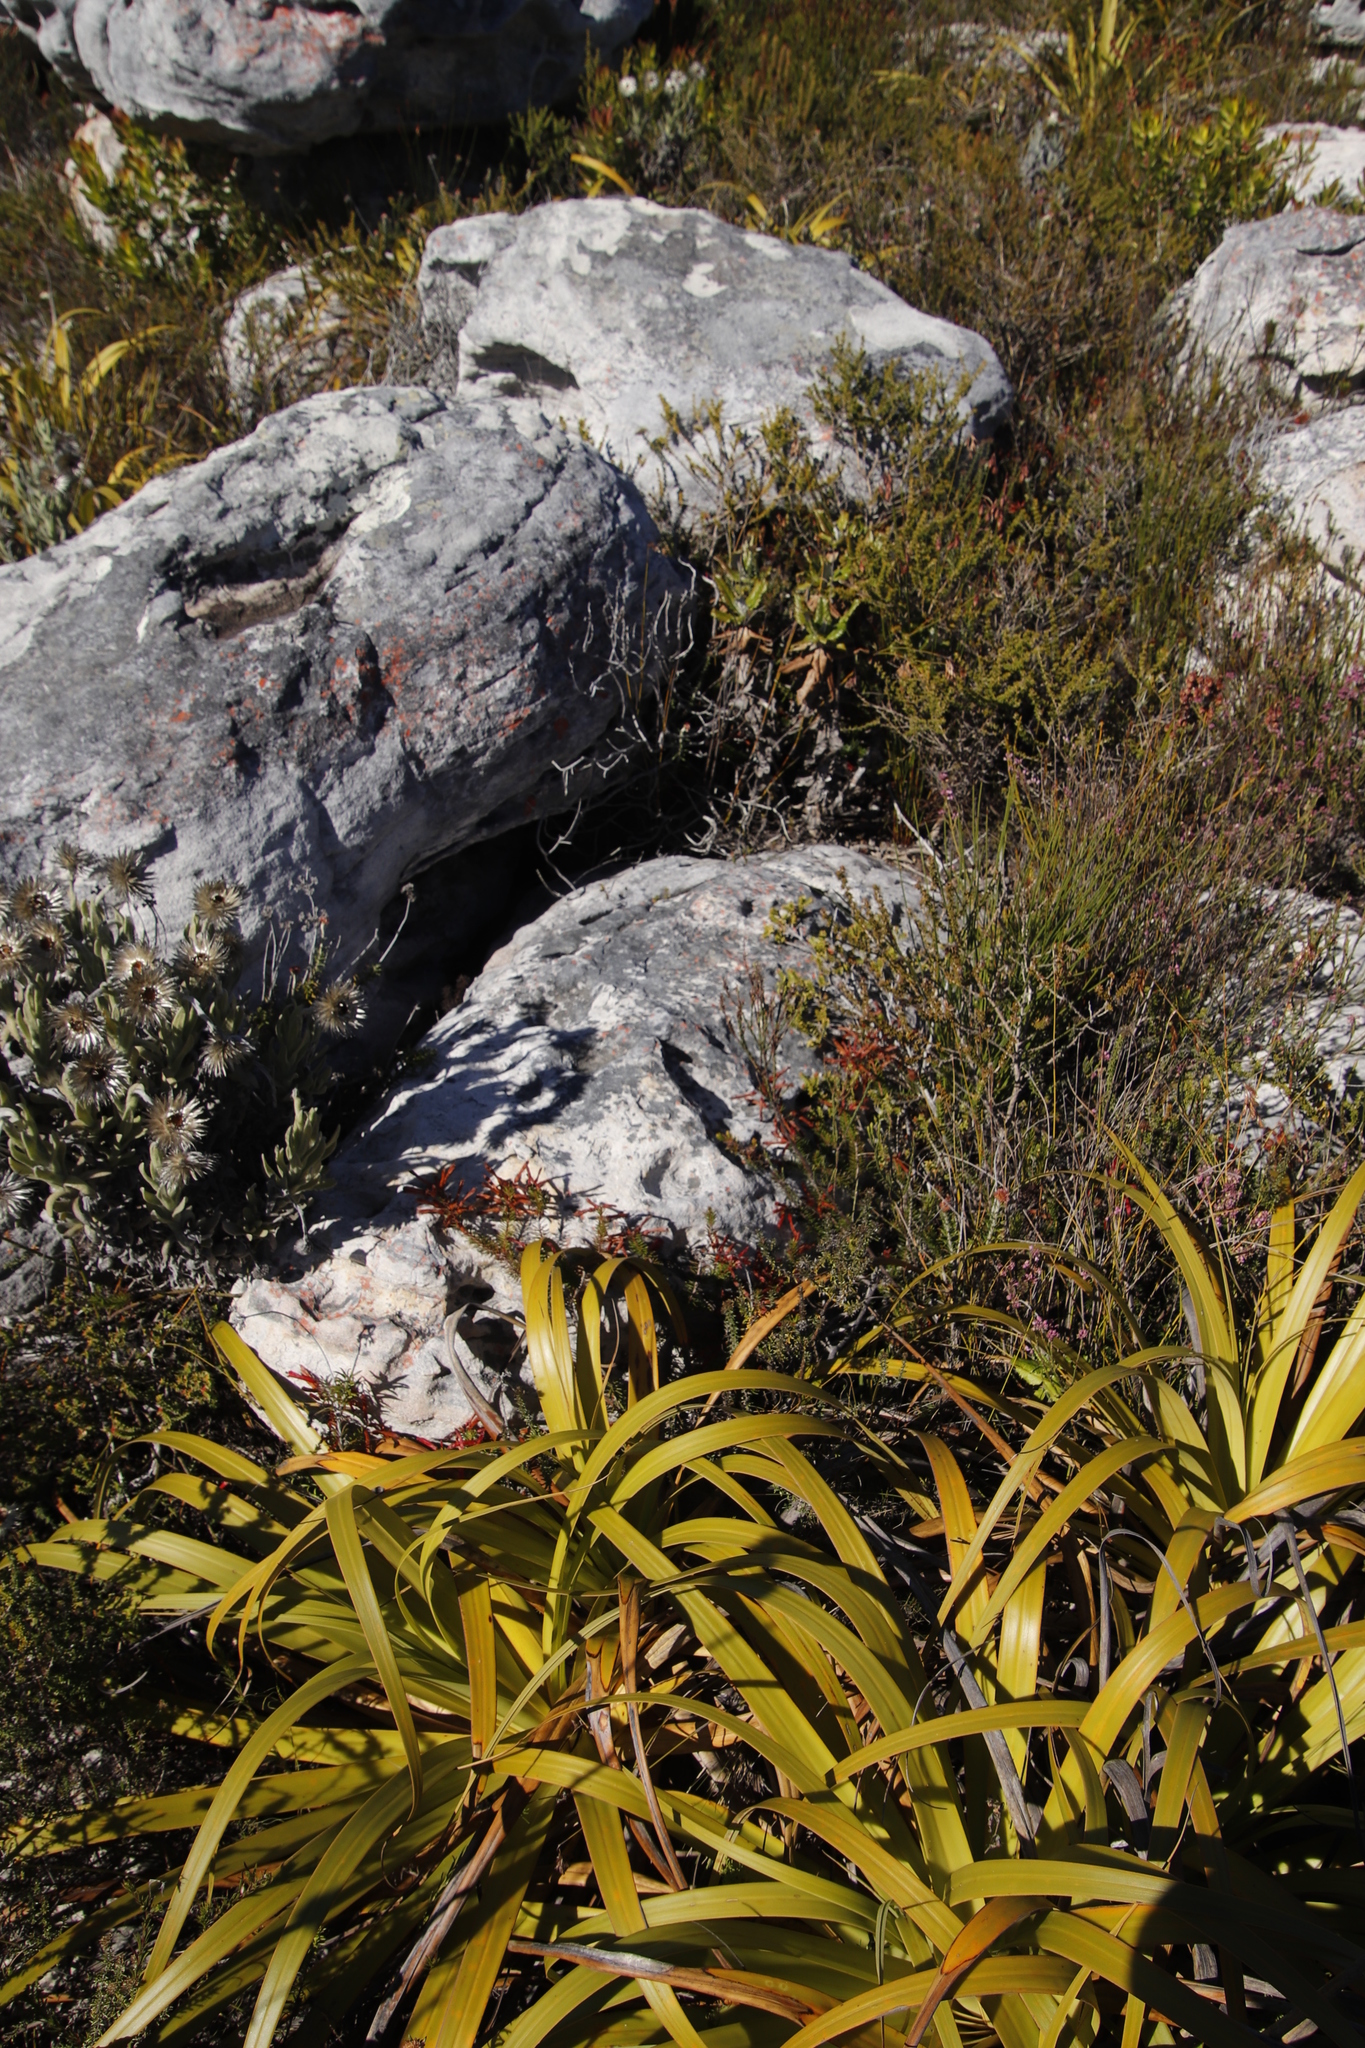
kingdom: Plantae
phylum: Tracheophyta
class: Magnoliopsida
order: Ericales
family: Ericaceae
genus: Erica
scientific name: Erica nevillei
